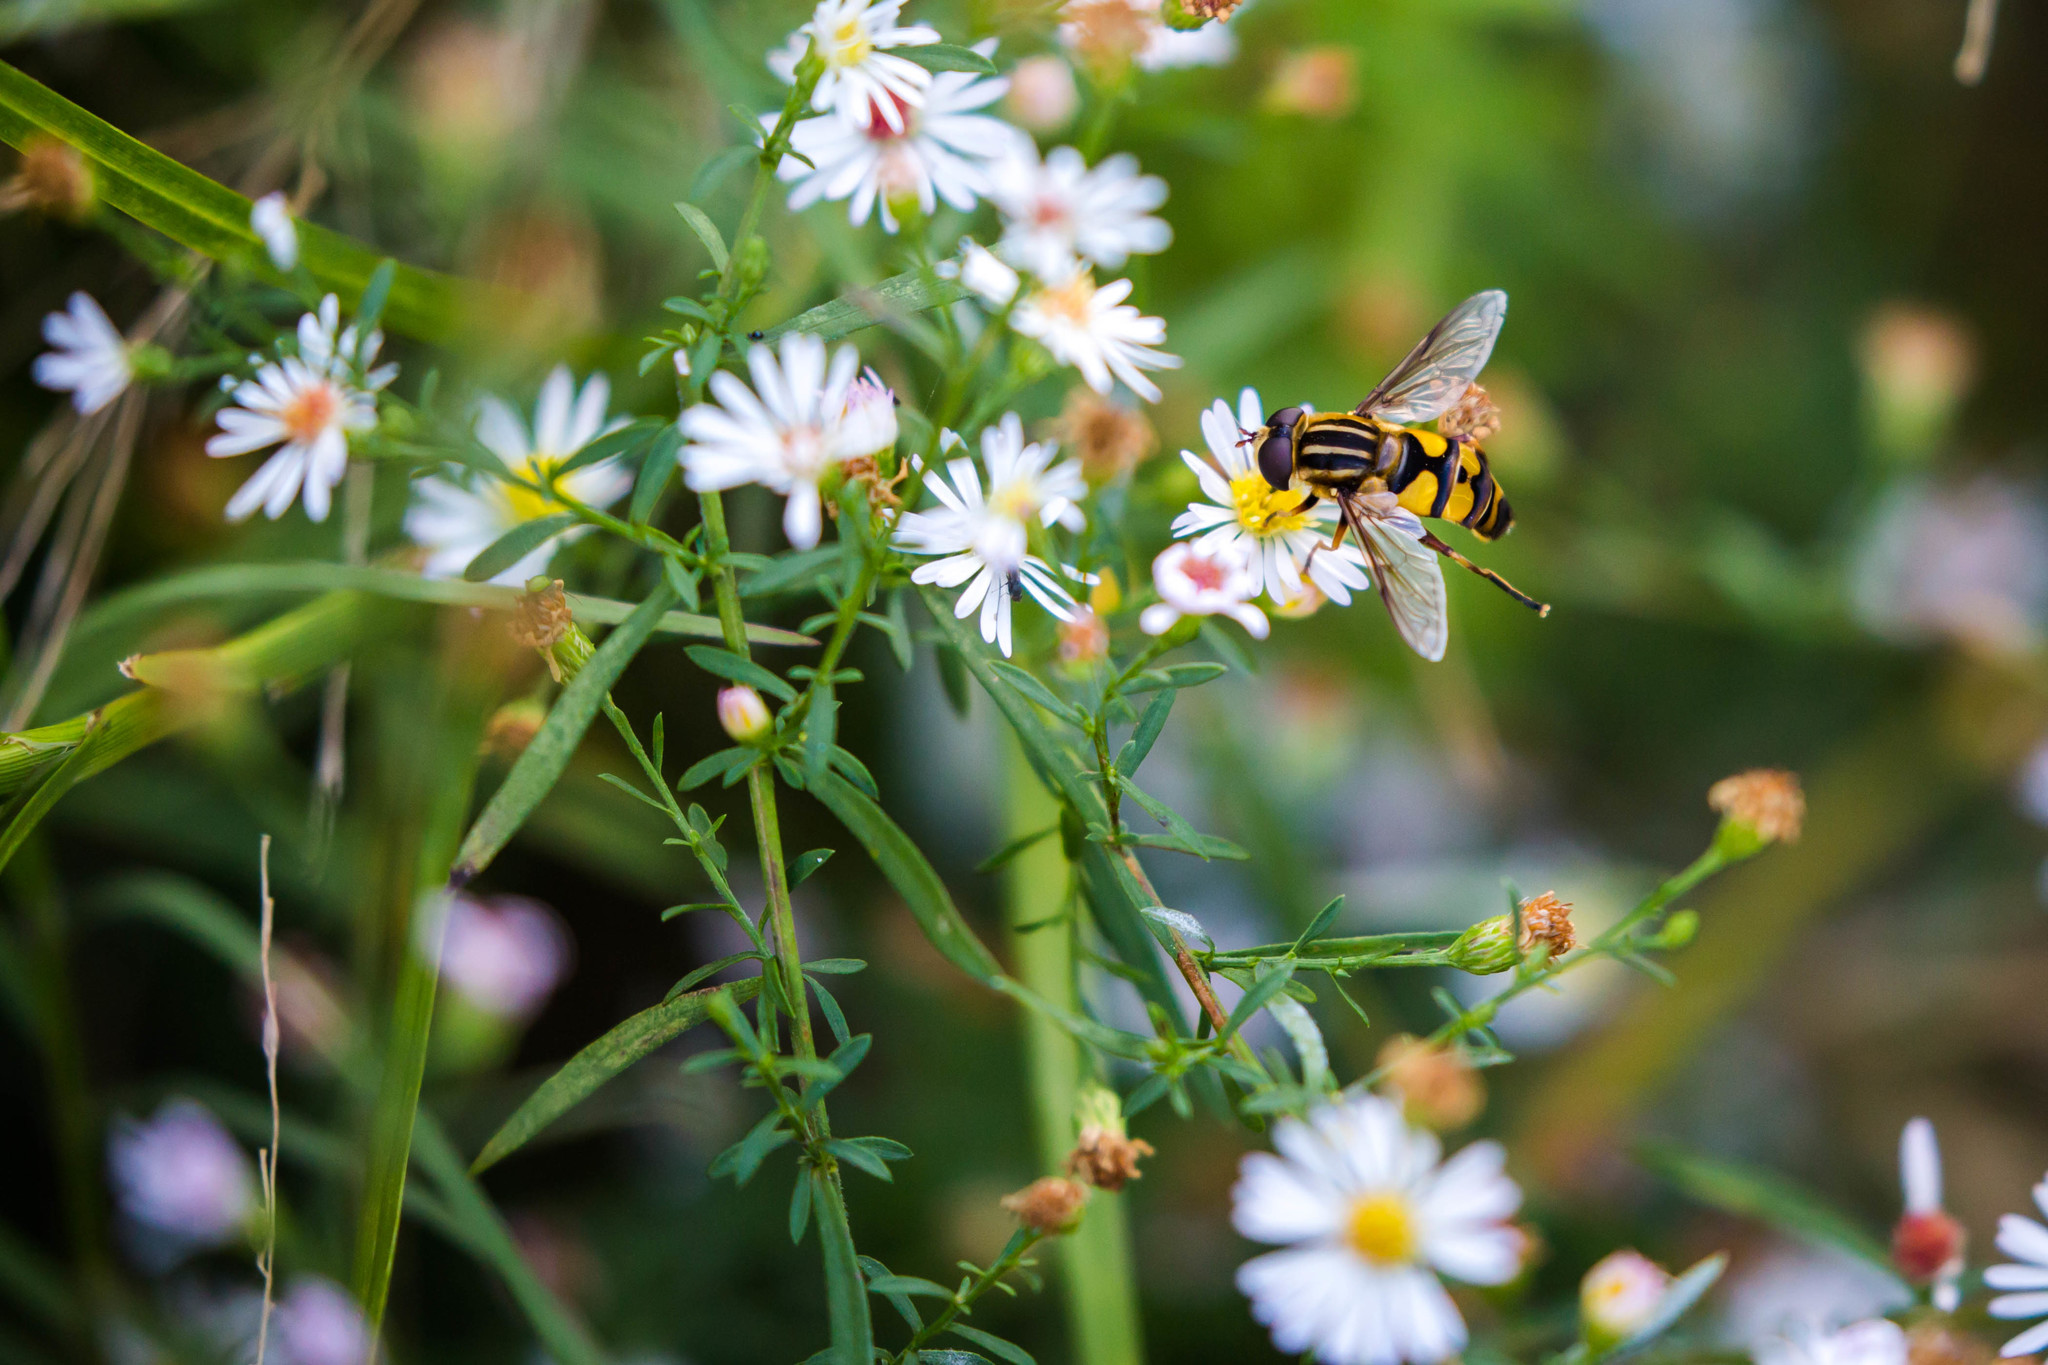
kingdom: Animalia
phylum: Arthropoda
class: Insecta
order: Diptera
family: Syrphidae
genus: Helophilus
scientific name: Helophilus fasciatus
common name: Narrow-headed marsh fly
